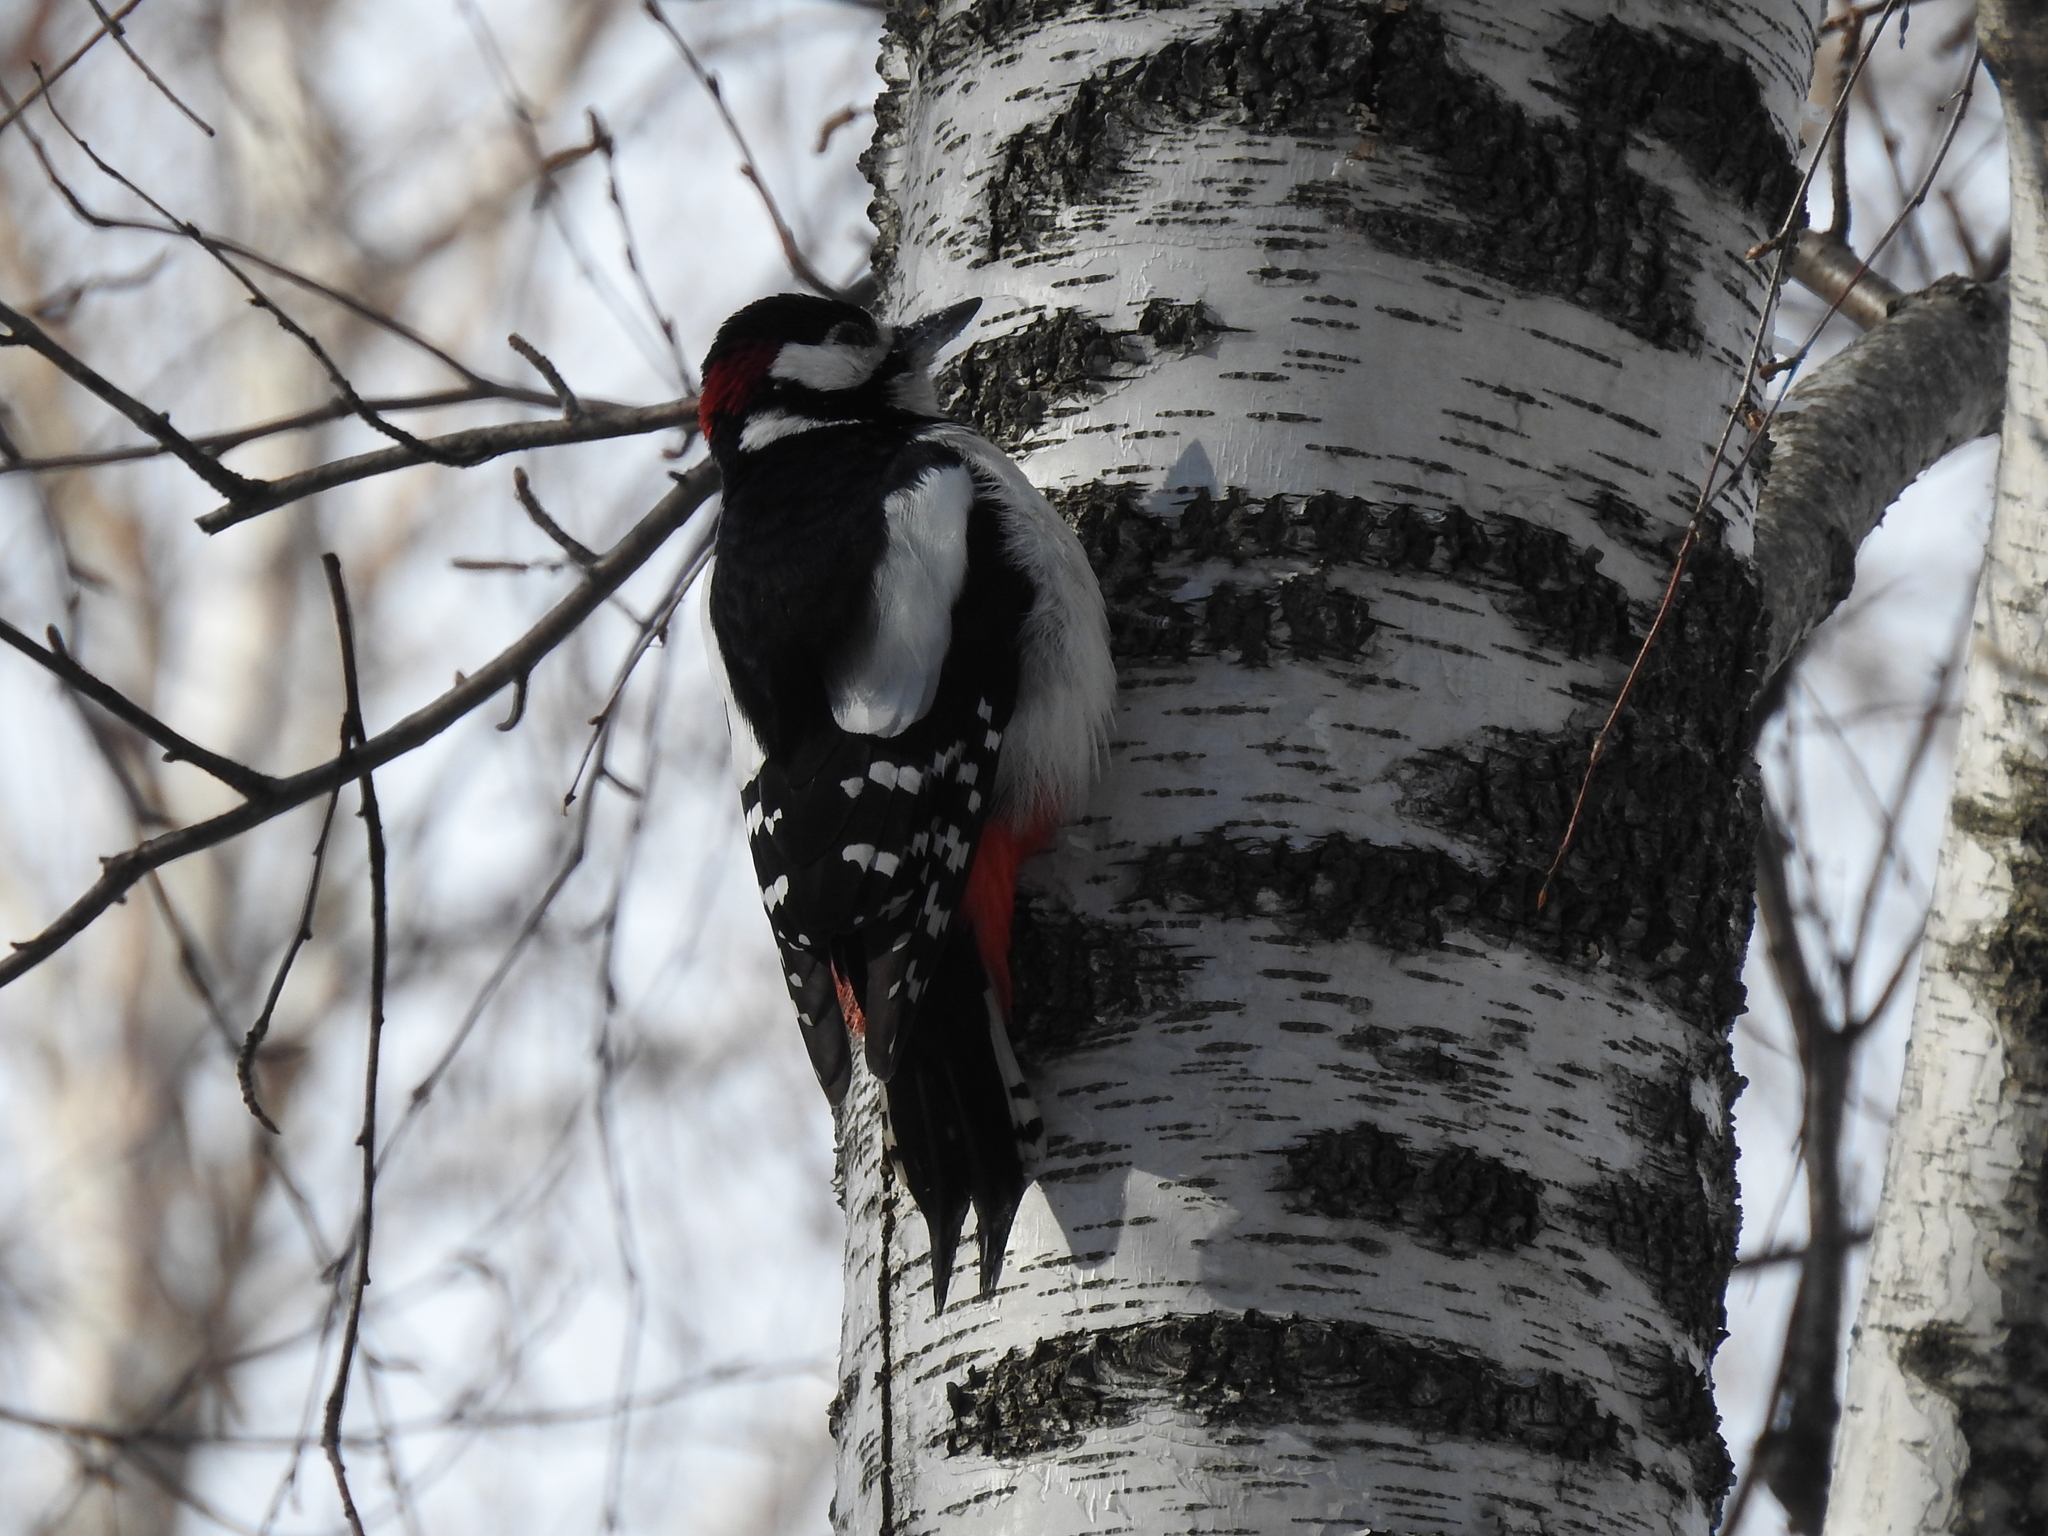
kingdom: Animalia
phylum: Chordata
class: Aves
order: Piciformes
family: Picidae
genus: Dendrocopos
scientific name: Dendrocopos major
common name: Great spotted woodpecker
